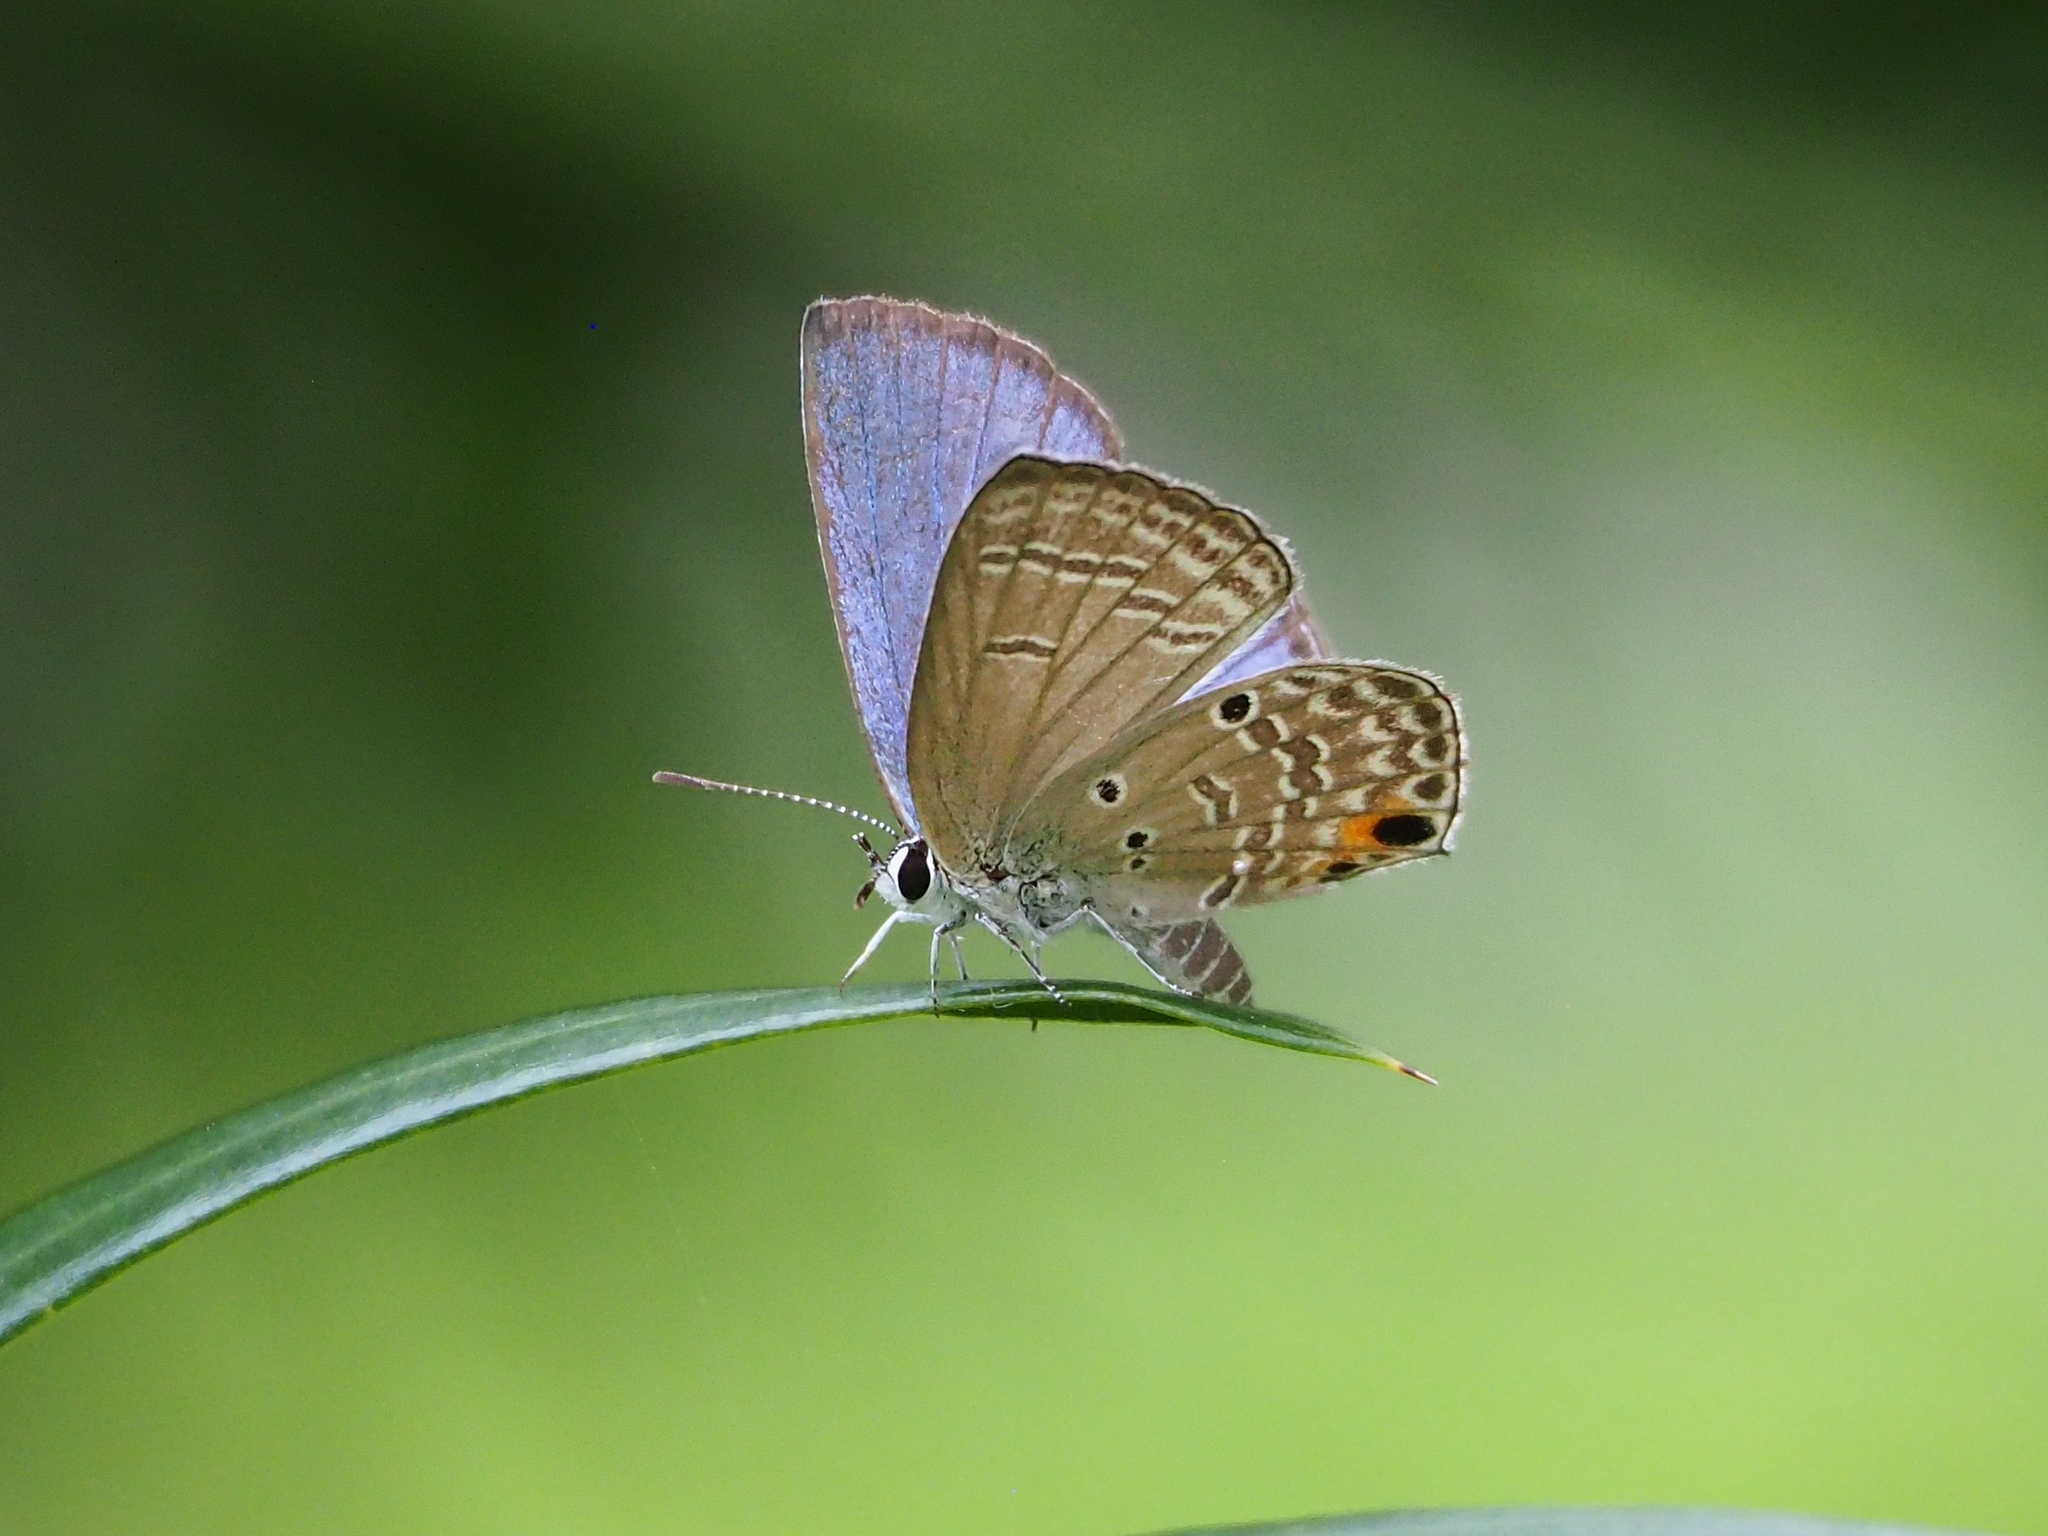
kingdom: Animalia
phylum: Arthropoda
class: Insecta
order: Lepidoptera
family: Lycaenidae
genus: Luthrodes
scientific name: Luthrodes pandava
